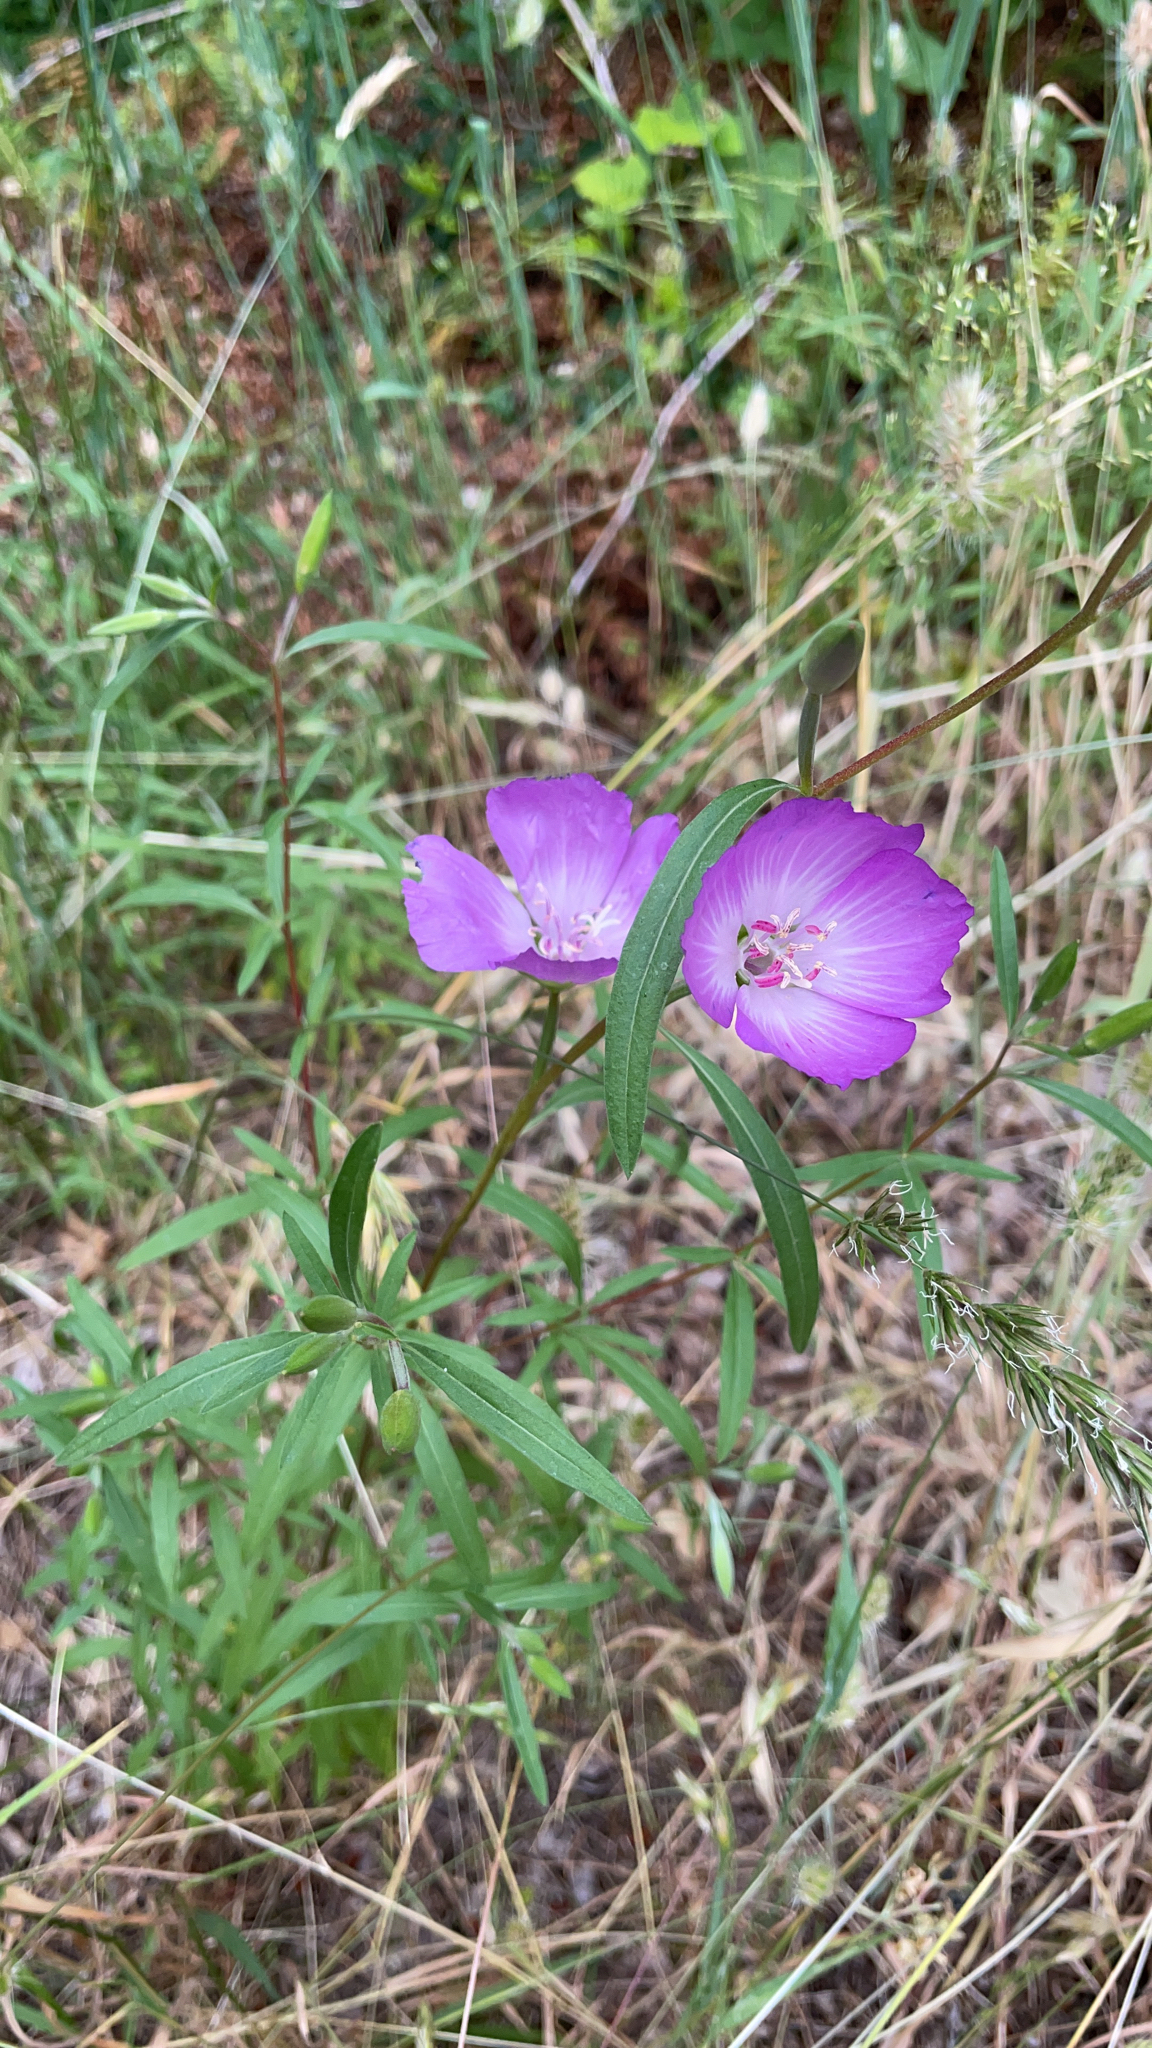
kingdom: Plantae
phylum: Tracheophyta
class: Magnoliopsida
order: Myrtales
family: Onagraceae
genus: Clarkia
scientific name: Clarkia amoena
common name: Godetia
